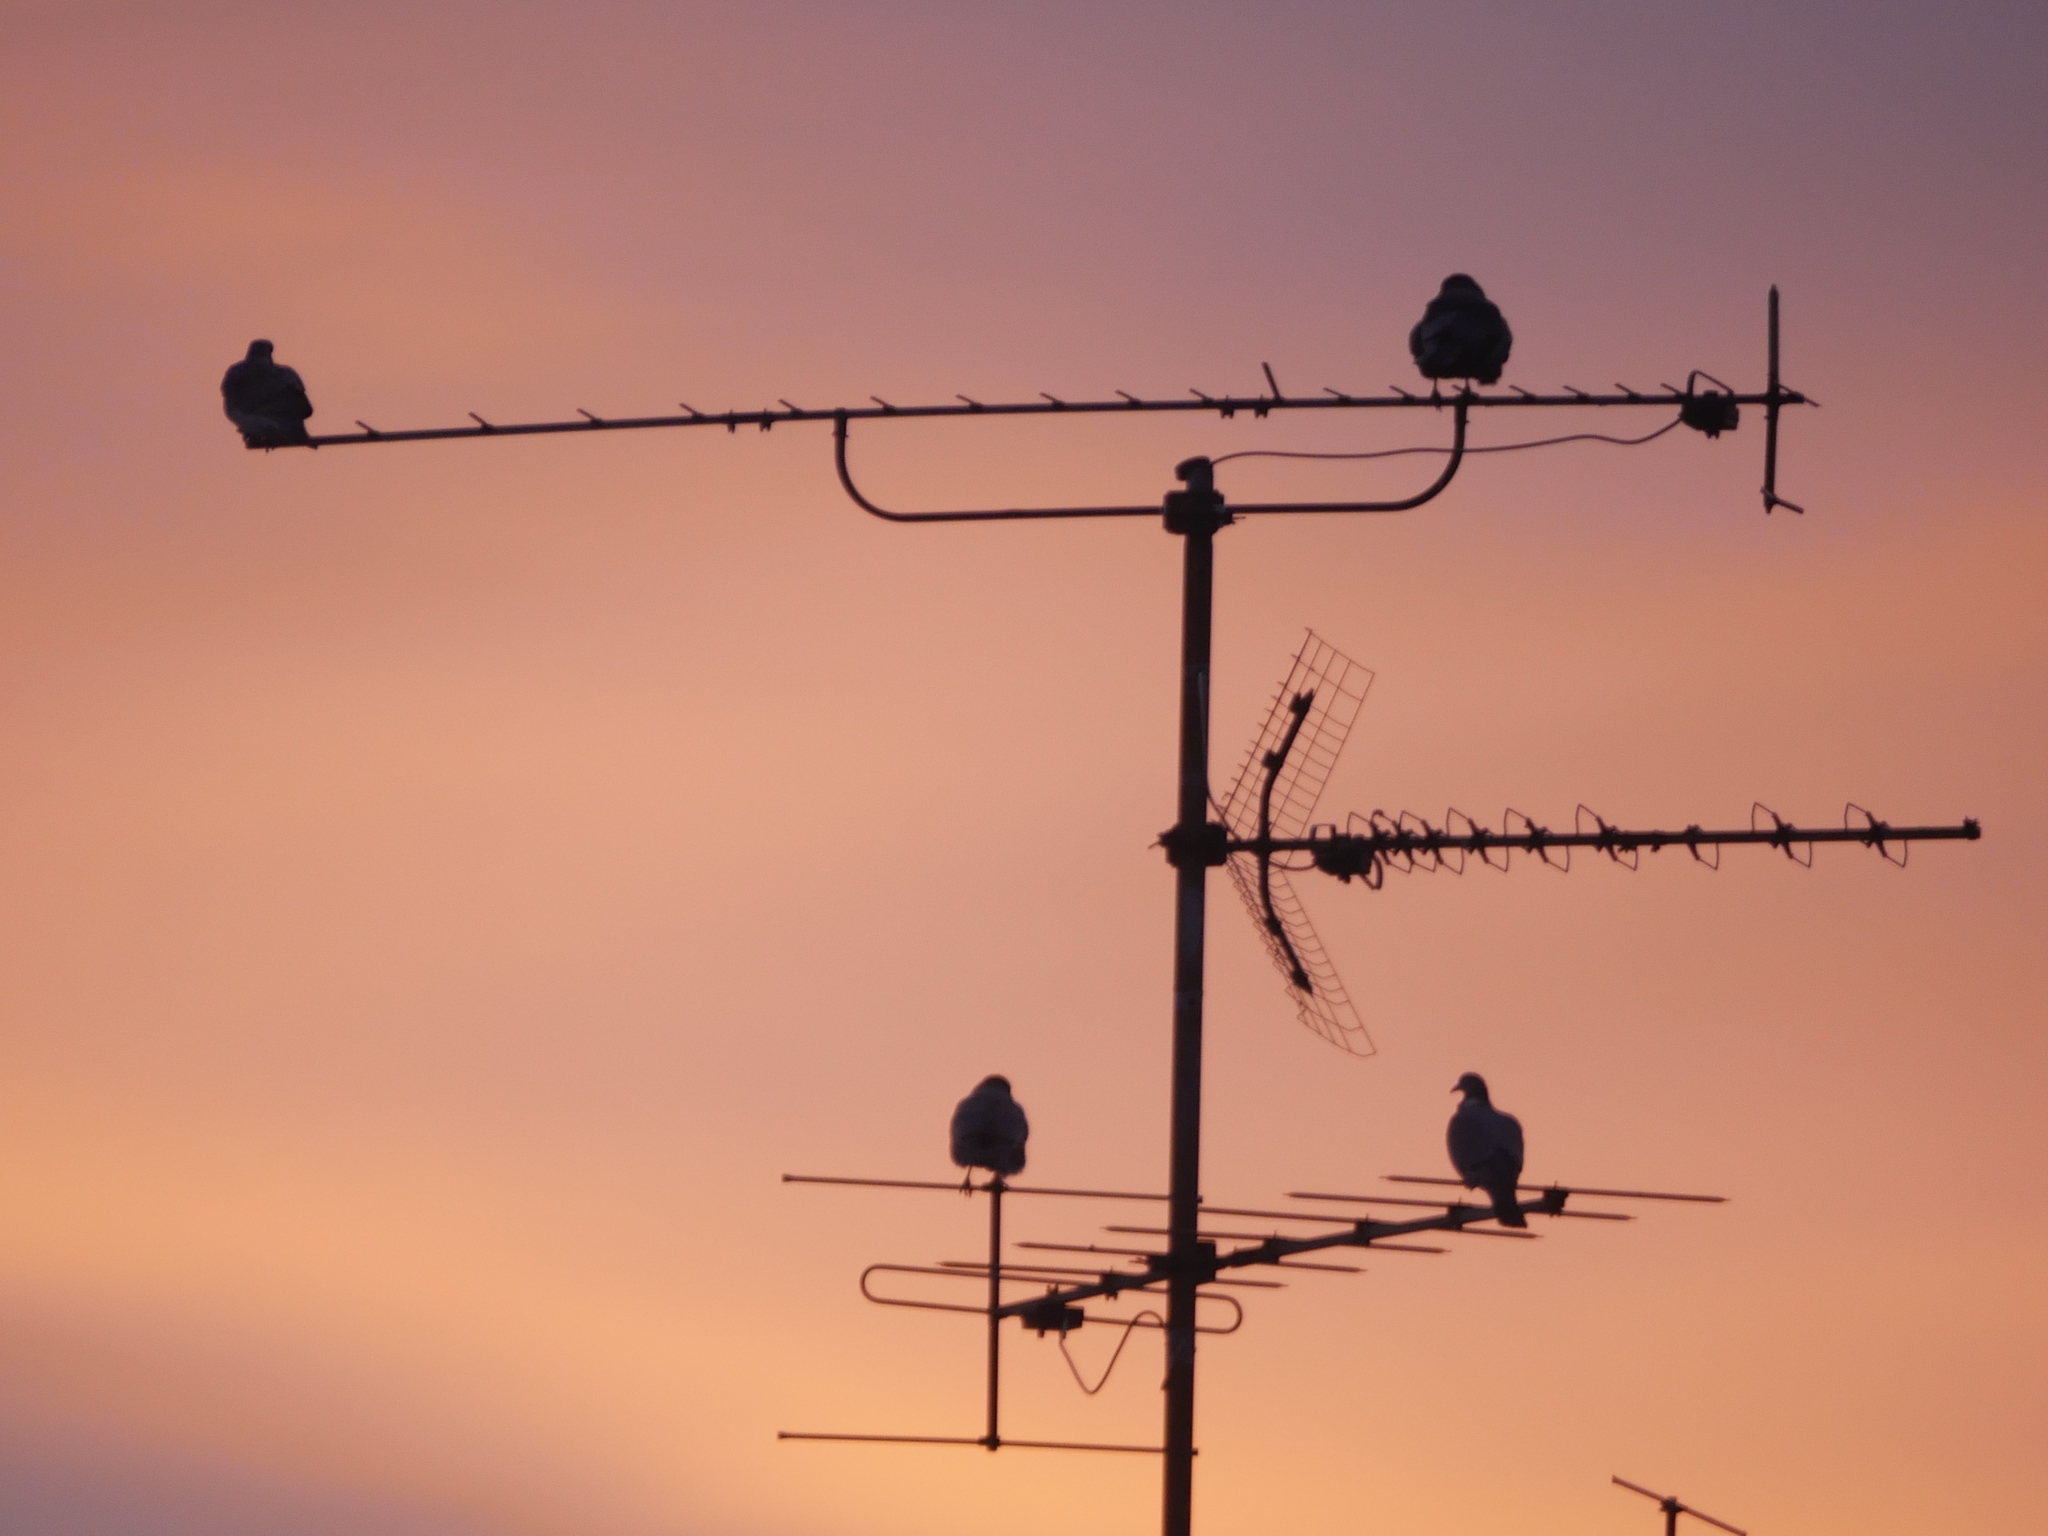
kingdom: Animalia
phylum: Chordata
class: Aves
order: Columbiformes
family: Columbidae
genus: Columba
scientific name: Columba palumbus
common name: Common wood pigeon
